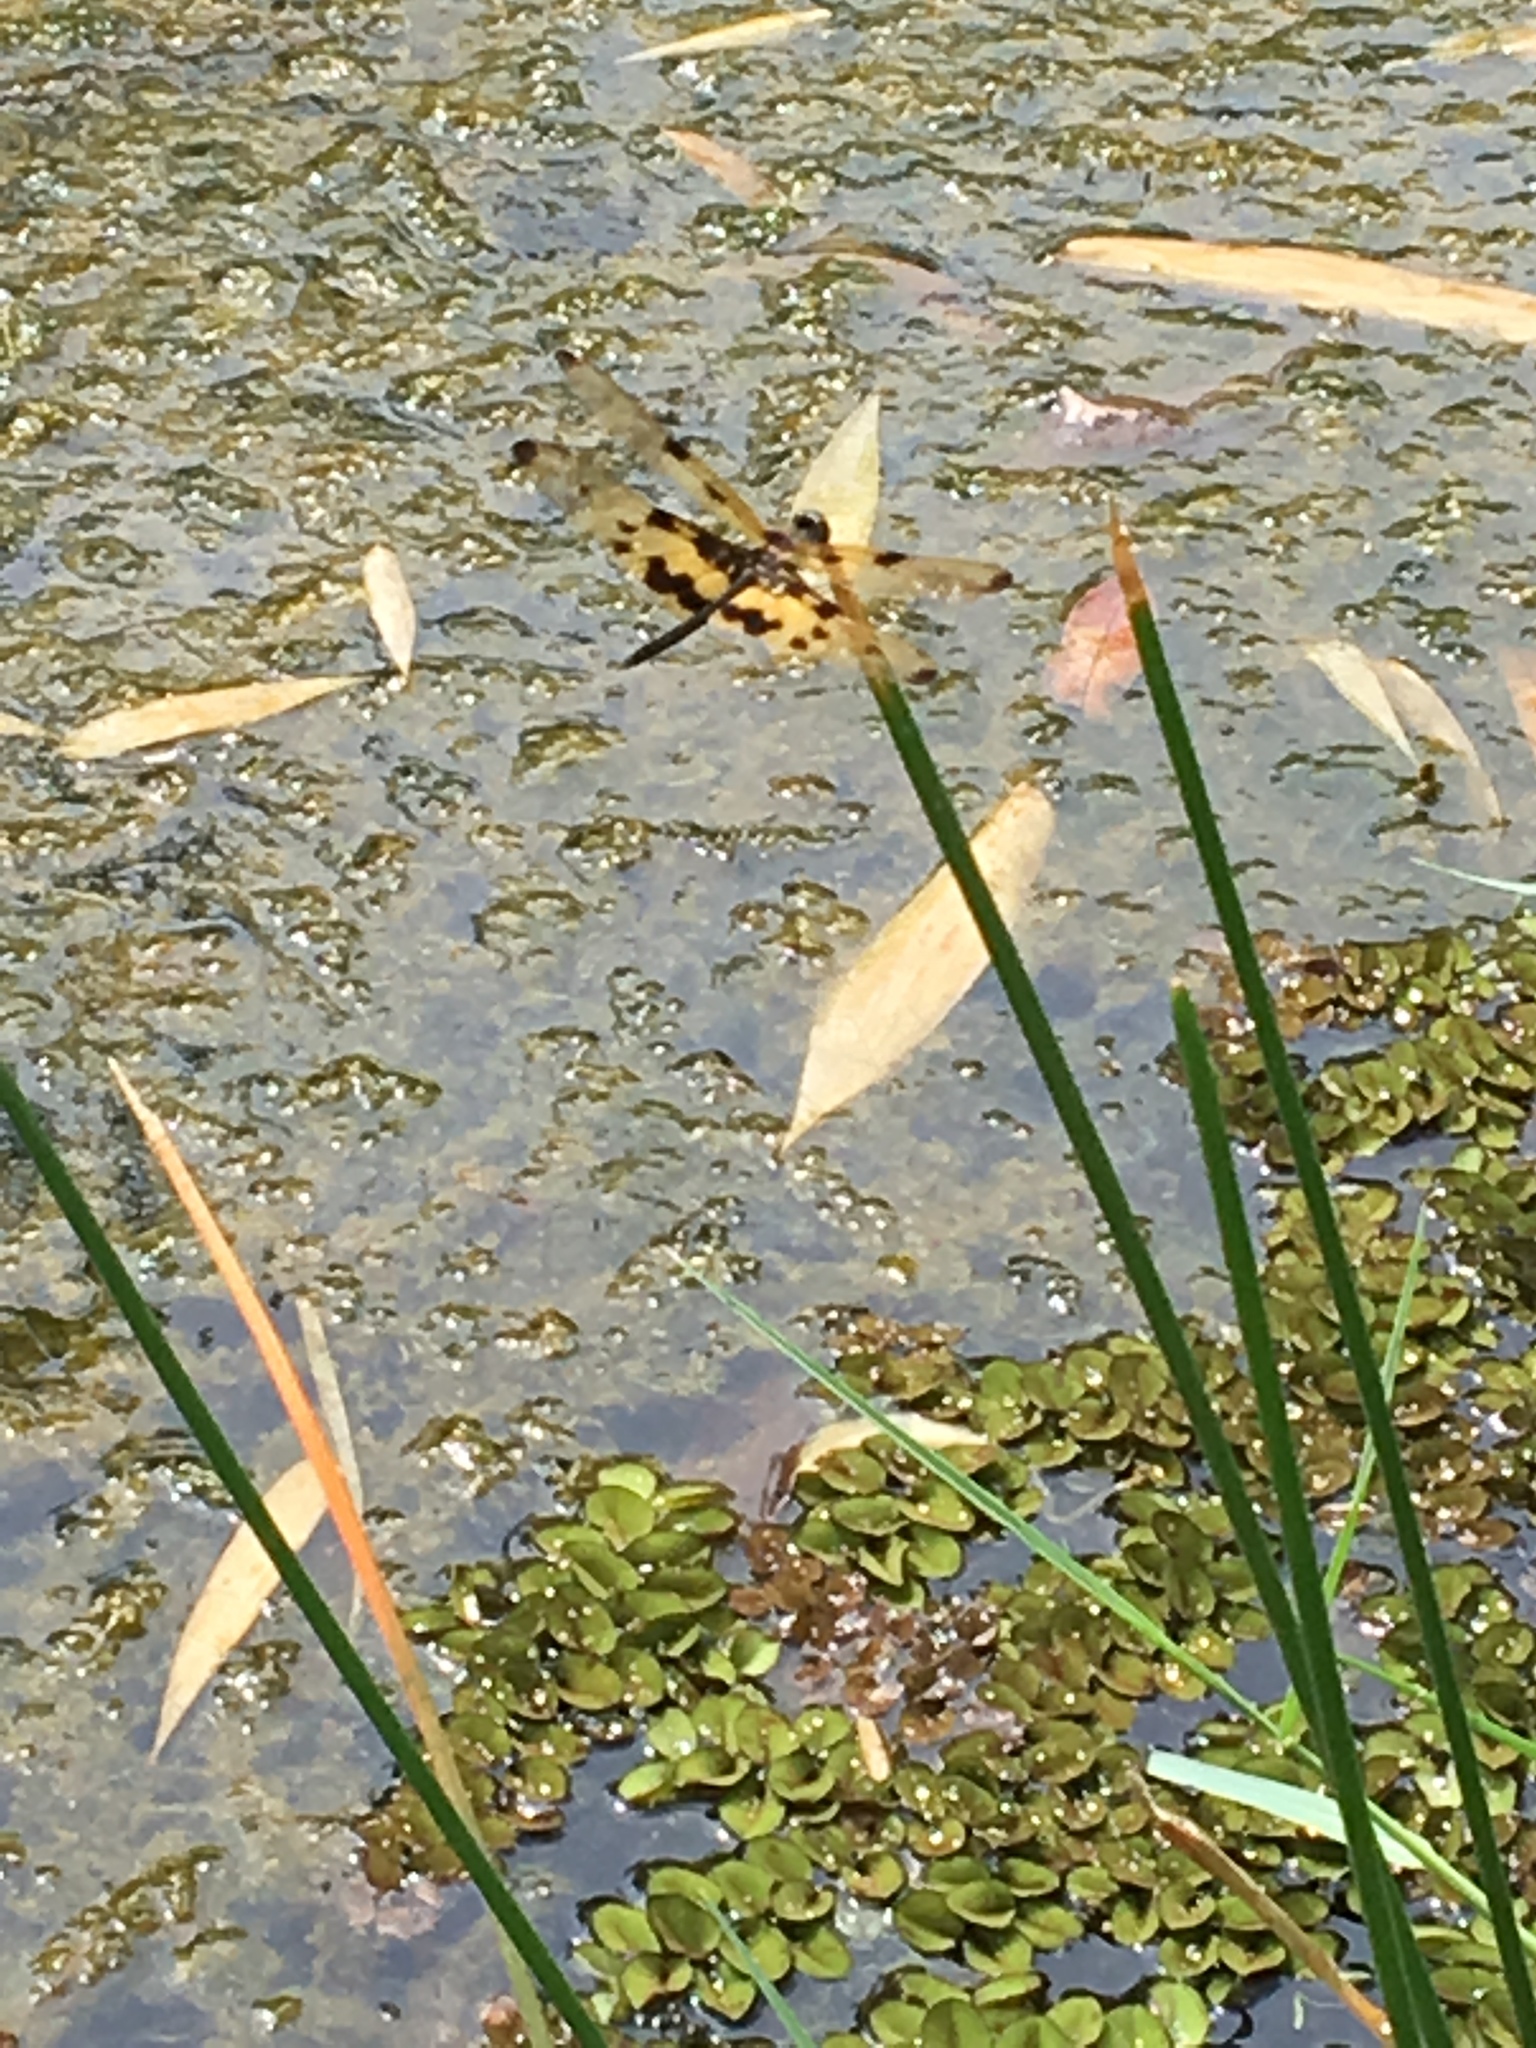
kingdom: Animalia
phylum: Arthropoda
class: Insecta
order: Odonata
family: Libellulidae
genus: Rhyothemis
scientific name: Rhyothemis variegata
